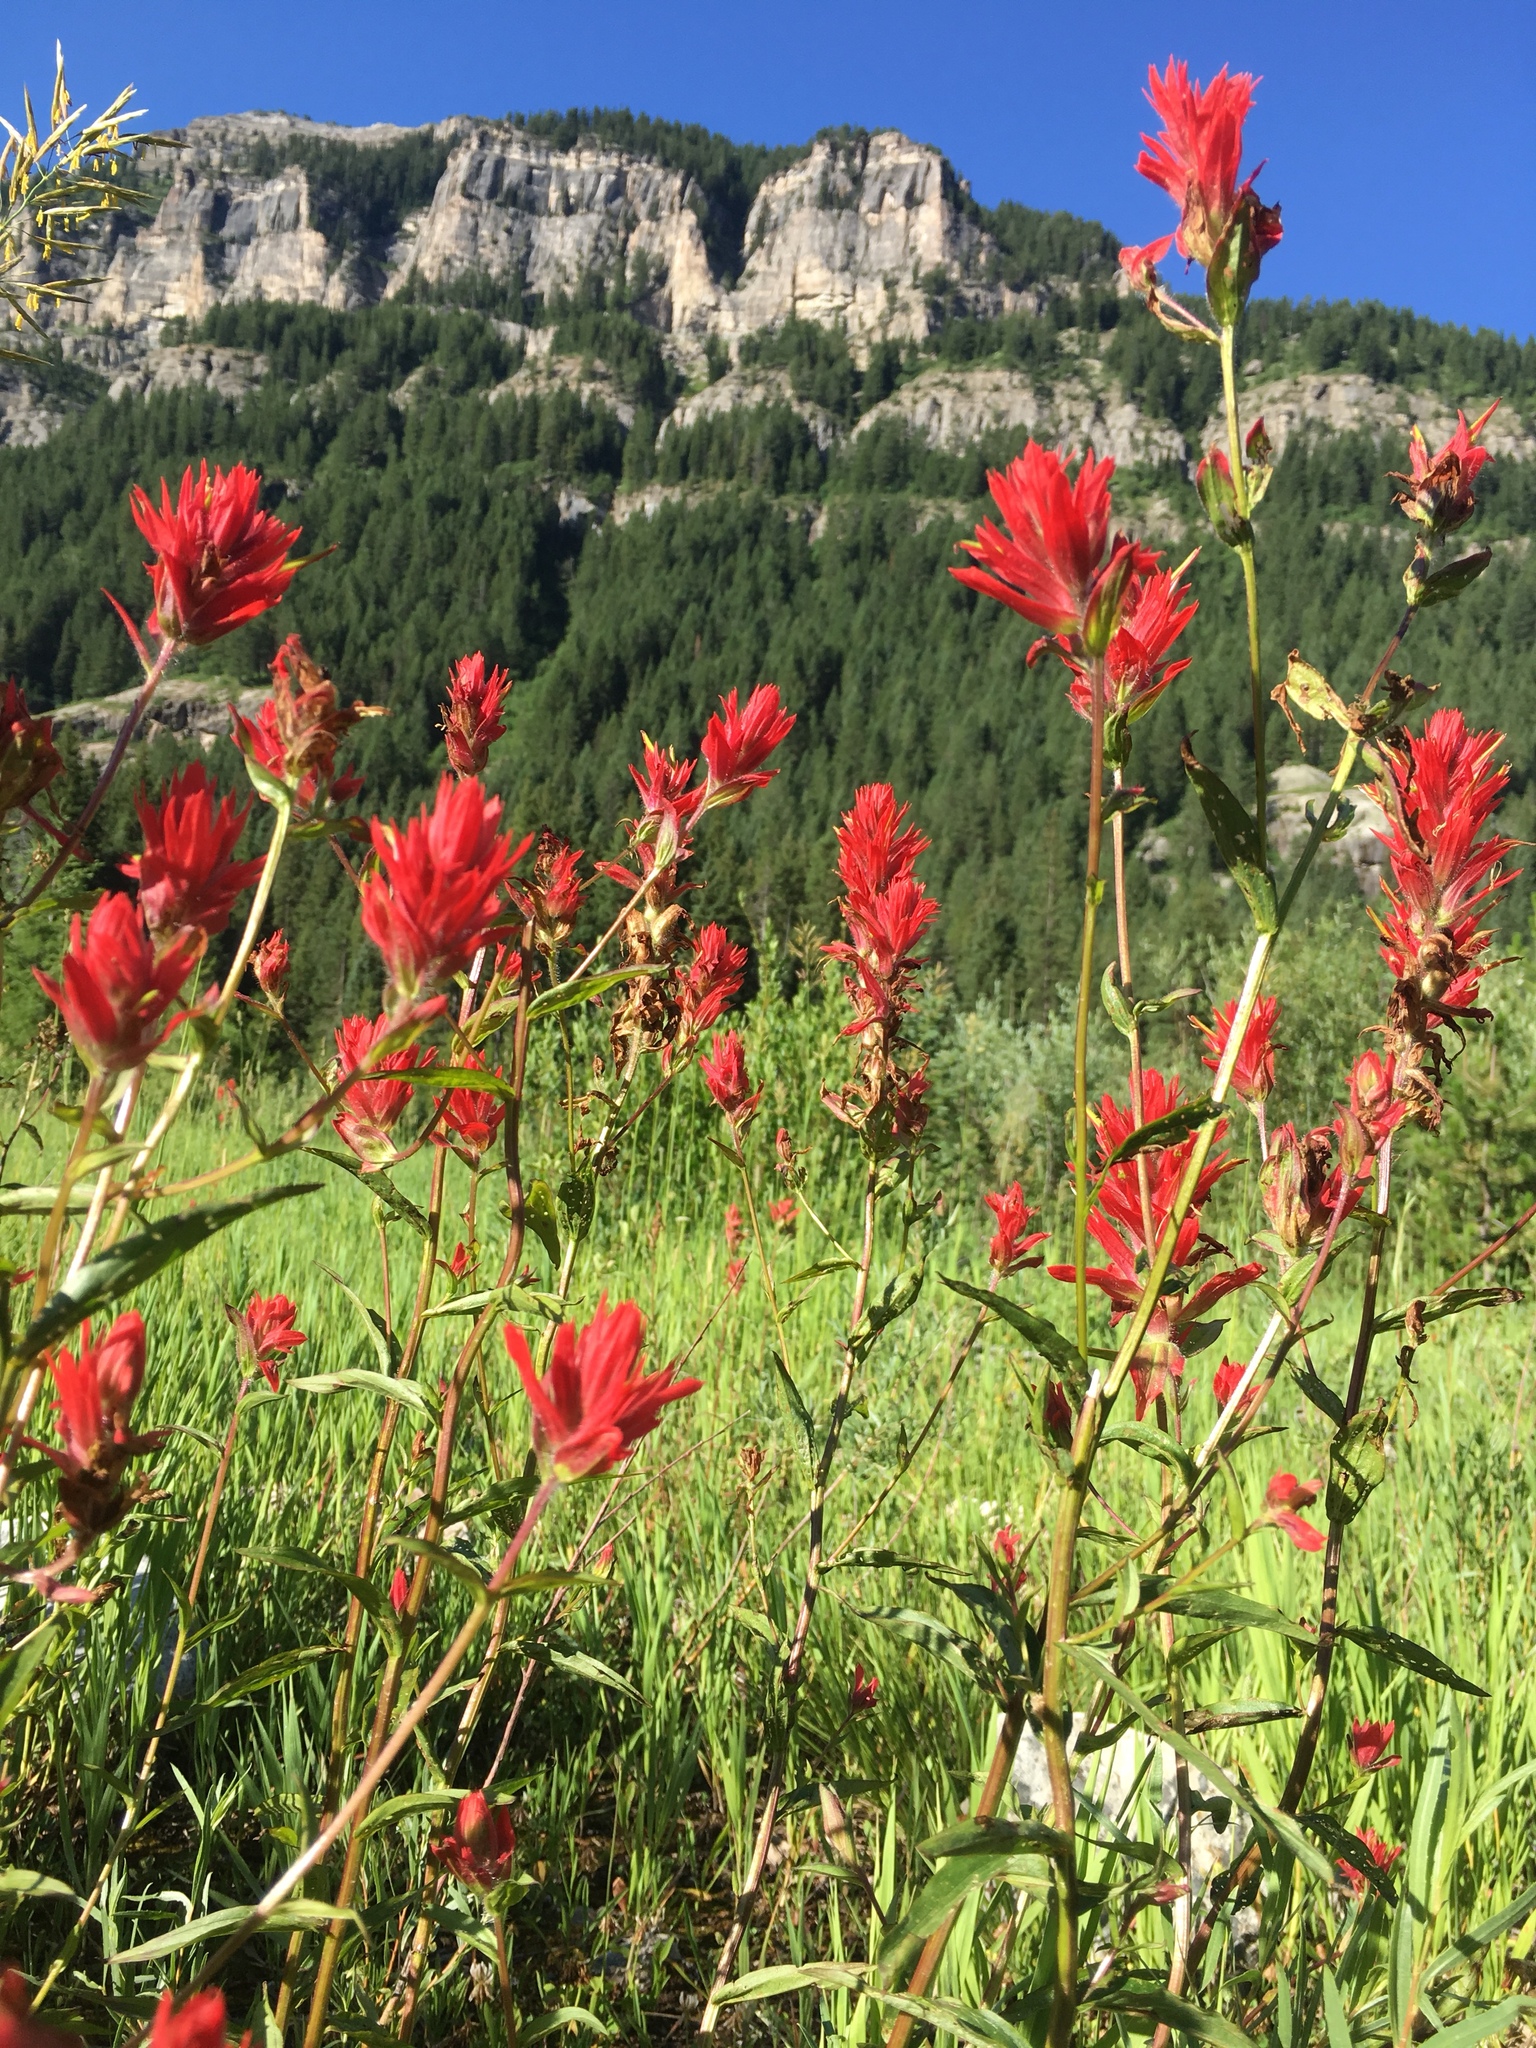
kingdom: Plantae
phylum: Tracheophyta
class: Magnoliopsida
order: Lamiales
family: Orobanchaceae
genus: Castilleja
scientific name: Castilleja miniata
